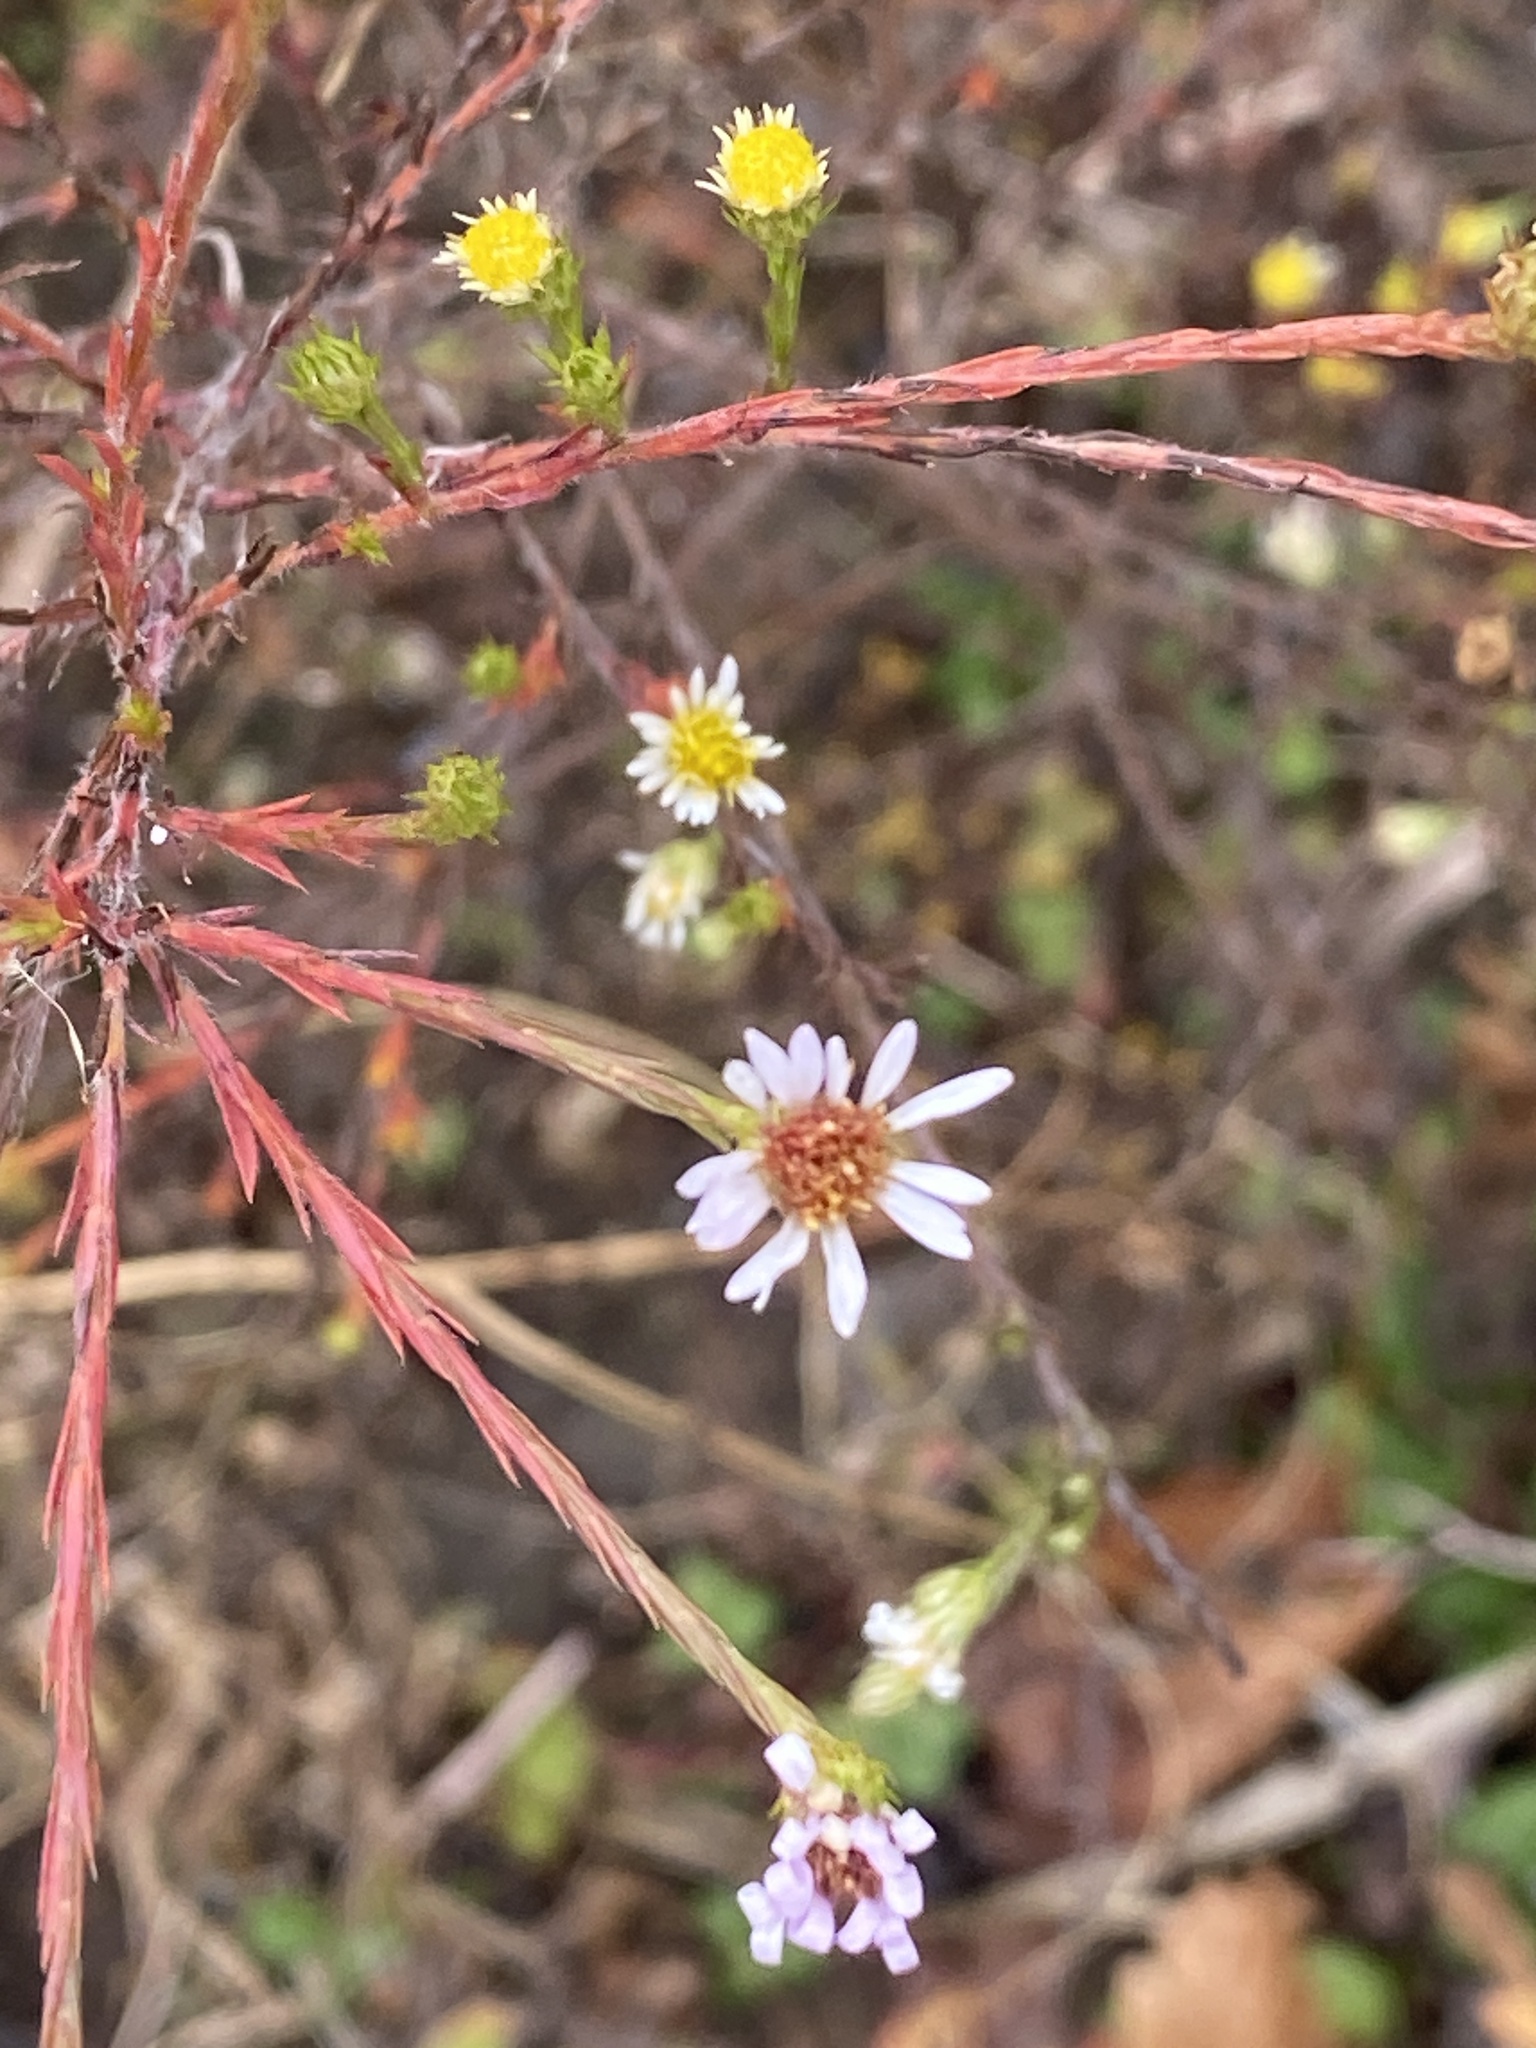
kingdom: Plantae
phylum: Tracheophyta
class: Magnoliopsida
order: Asterales
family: Asteraceae
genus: Symphyotrichum
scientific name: Symphyotrichum pilosum
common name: Awl aster
